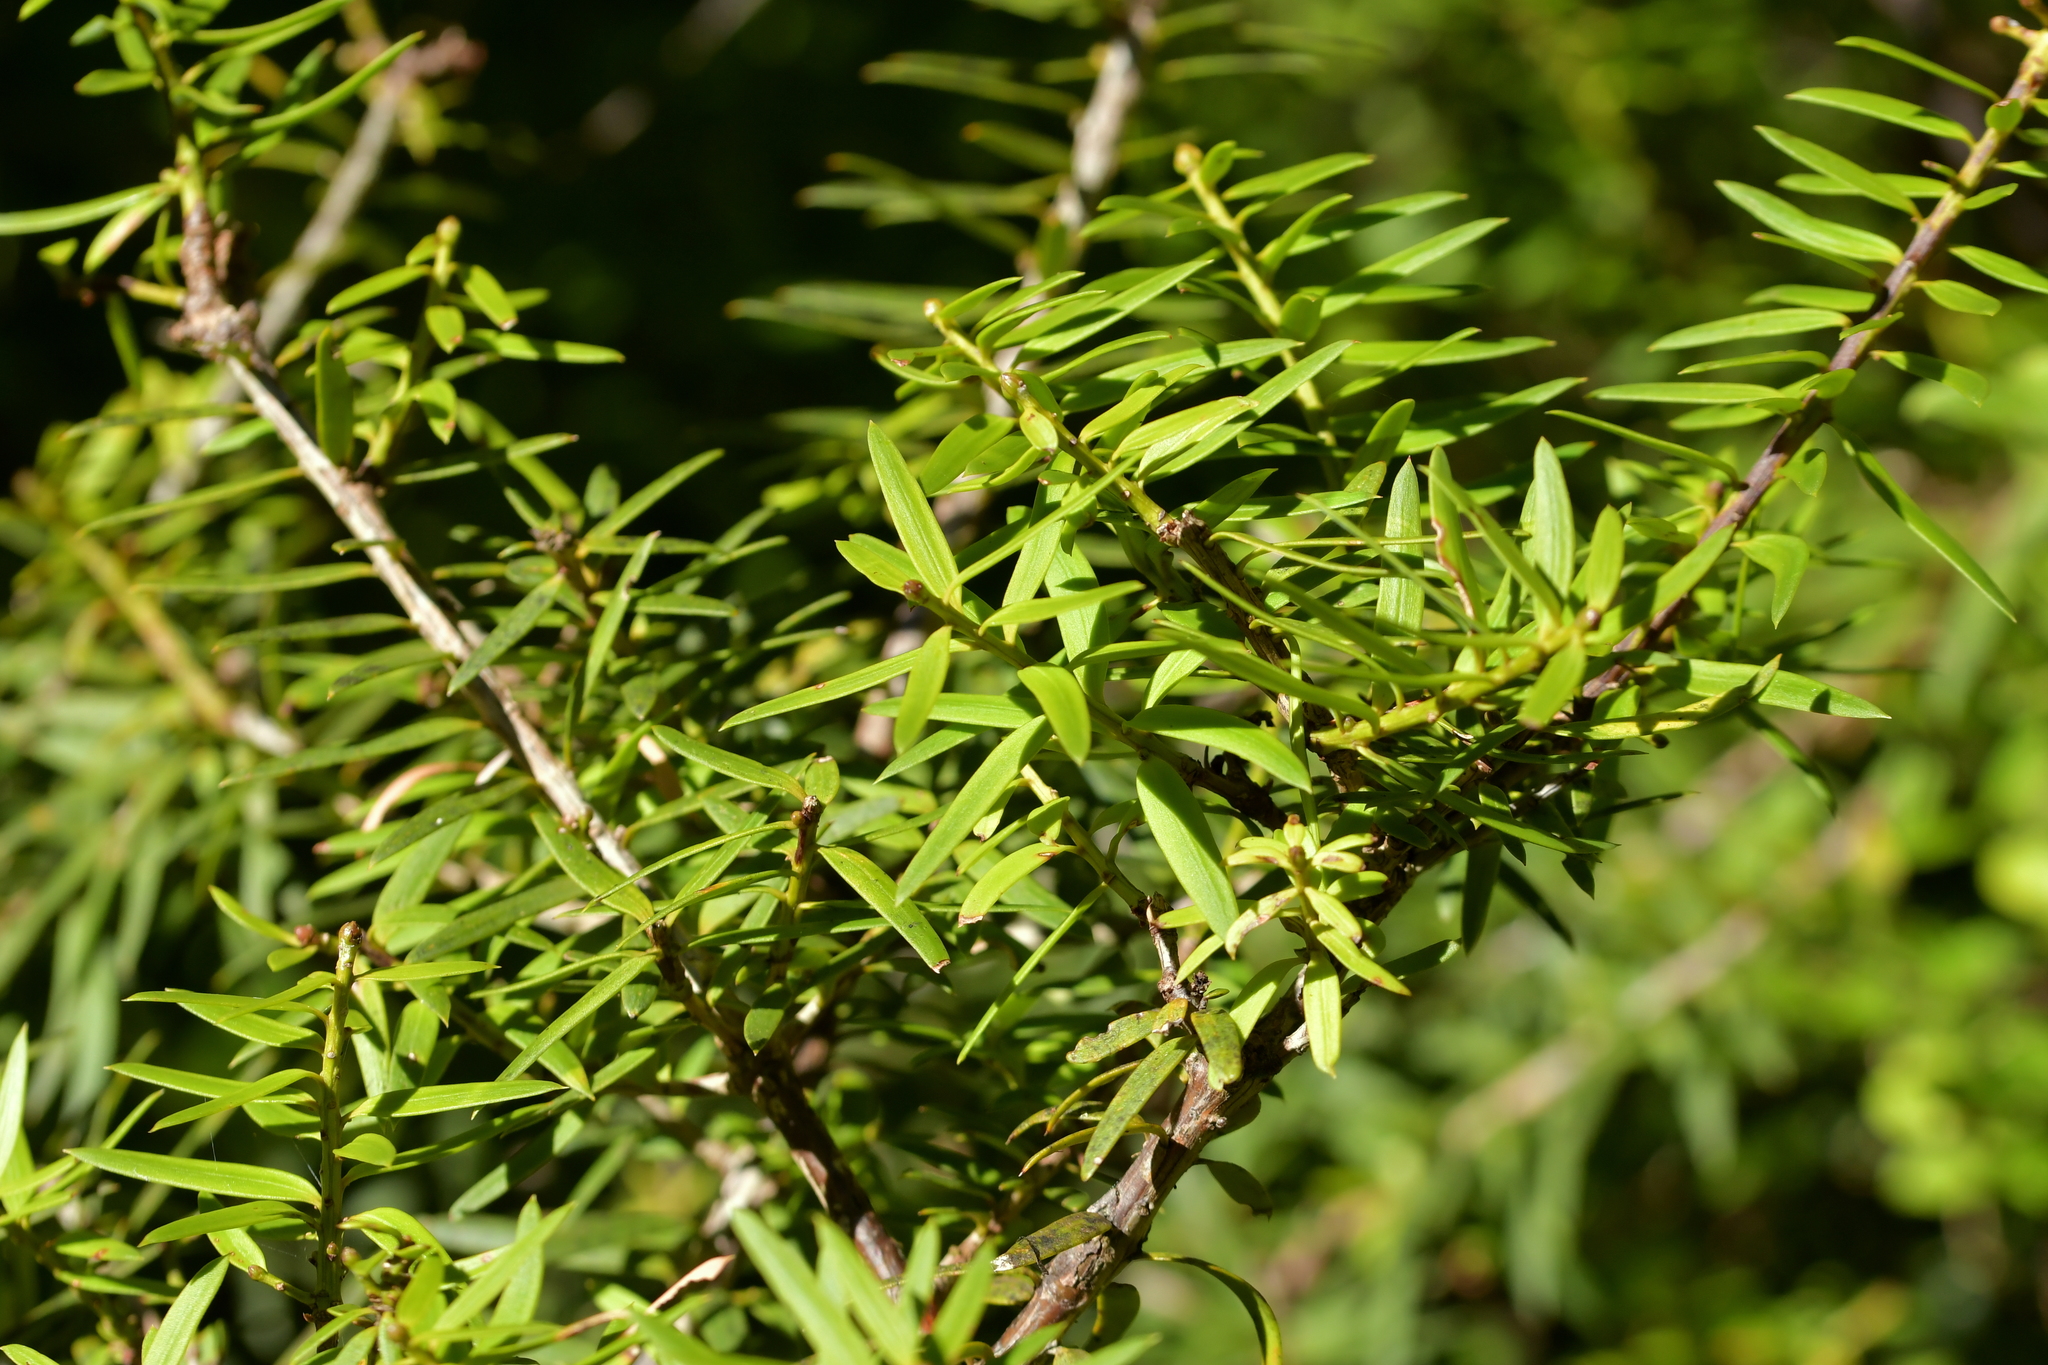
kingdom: Plantae
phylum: Tracheophyta
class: Pinopsida
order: Pinales
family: Podocarpaceae
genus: Podocarpus
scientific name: Podocarpus laetus
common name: Hall's totara
